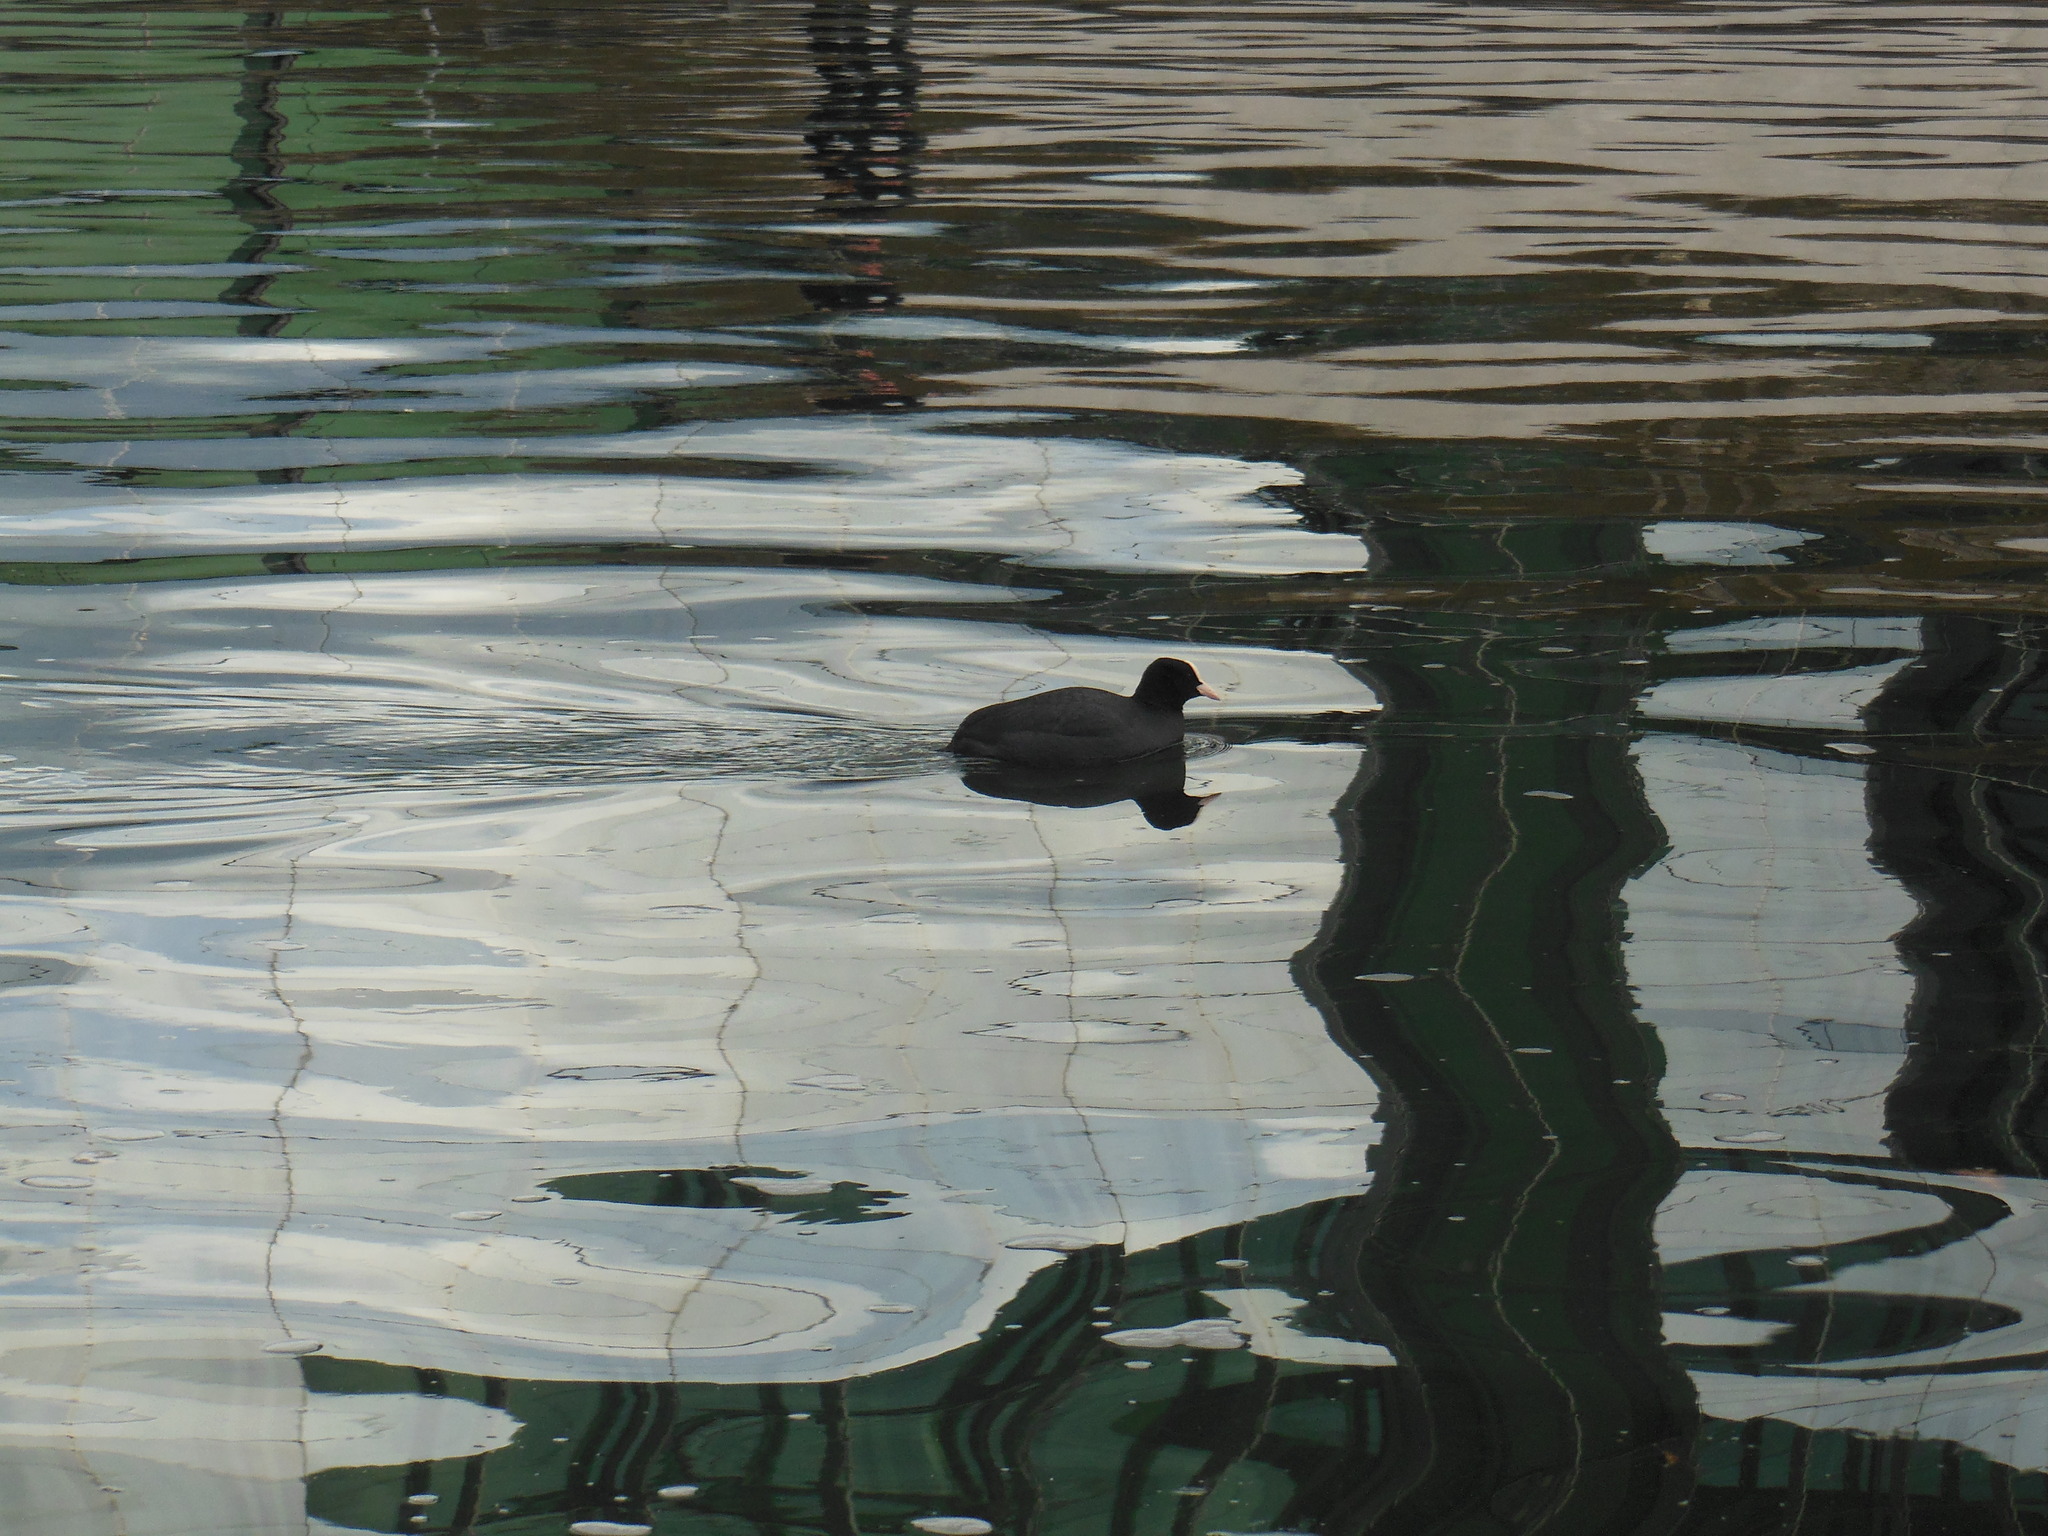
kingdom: Animalia
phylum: Chordata
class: Aves
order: Gruiformes
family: Rallidae
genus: Fulica
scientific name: Fulica atra
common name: Eurasian coot
